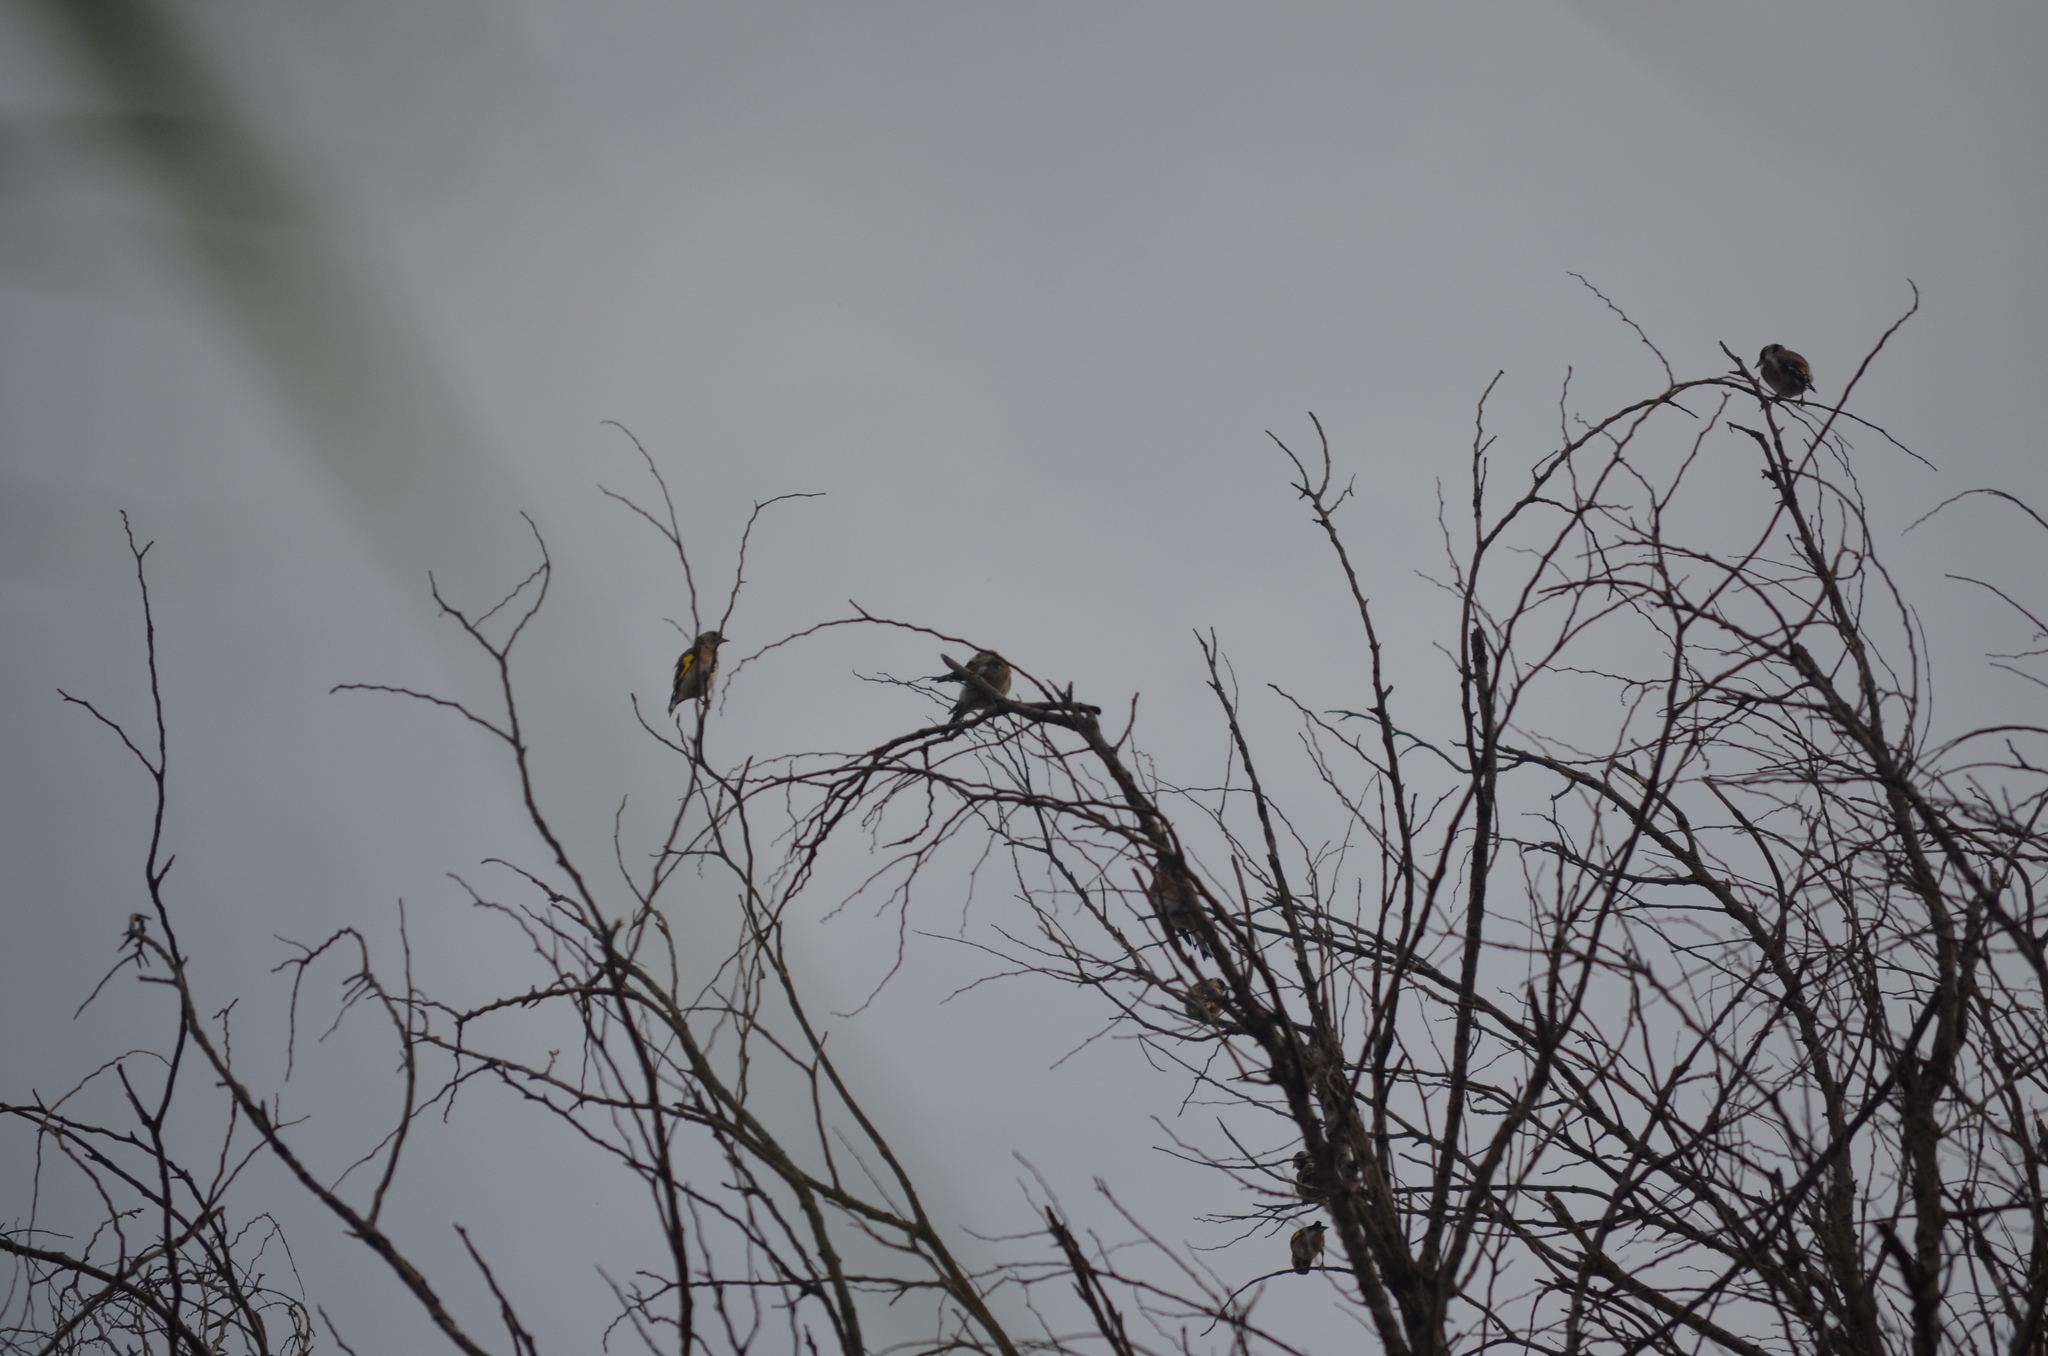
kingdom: Animalia
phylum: Chordata
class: Aves
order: Passeriformes
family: Fringillidae
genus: Carduelis
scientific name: Carduelis carduelis
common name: European goldfinch
